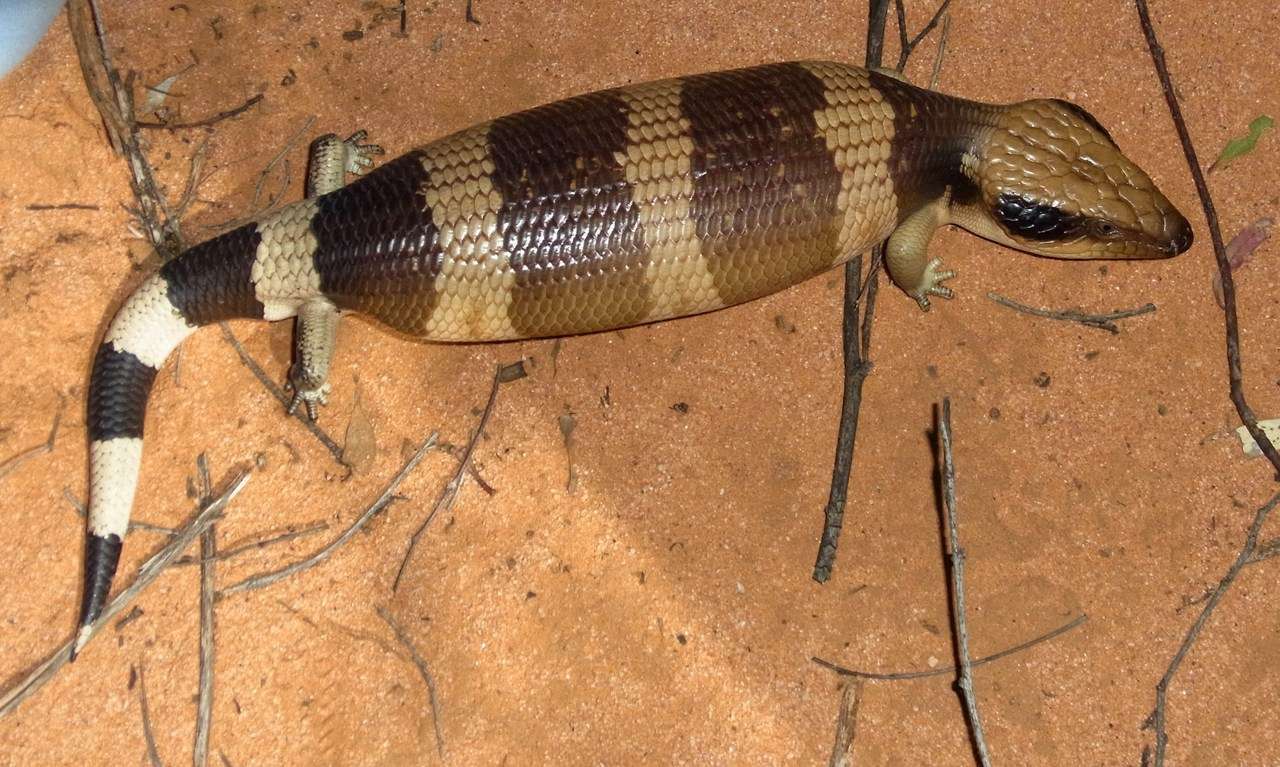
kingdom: Animalia
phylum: Chordata
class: Squamata
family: Scincidae
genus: Tiliqua
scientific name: Tiliqua occipitalis
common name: Western blue-tongued lizard
